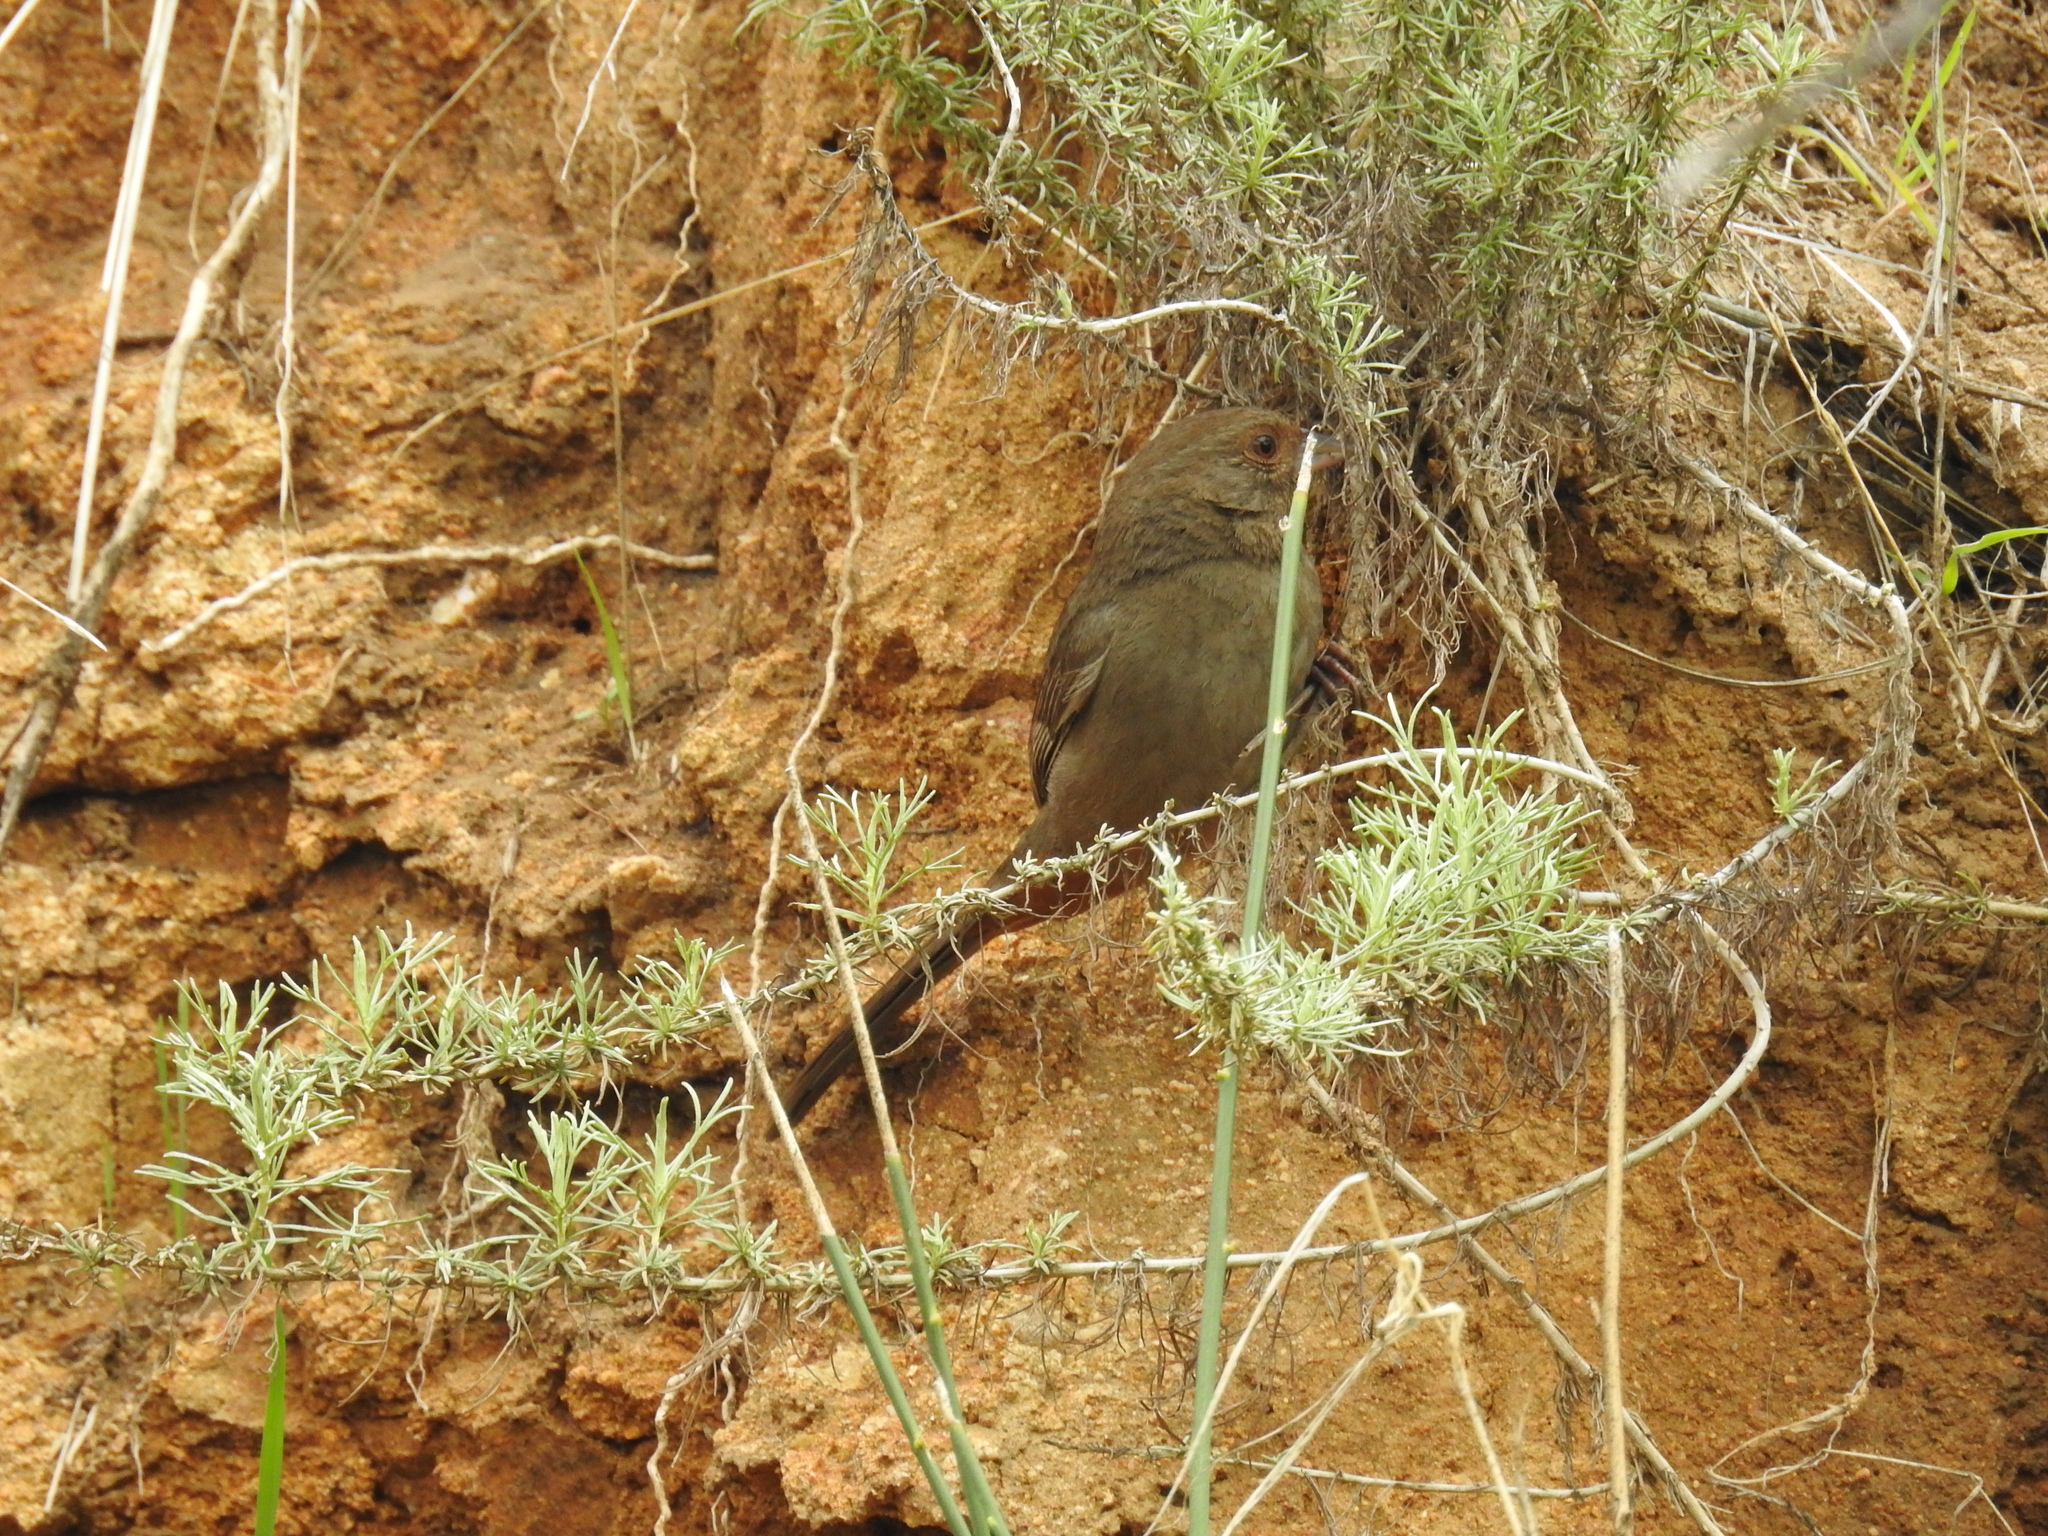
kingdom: Animalia
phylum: Chordata
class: Aves
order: Passeriformes
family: Passerellidae
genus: Melozone
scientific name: Melozone crissalis
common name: California towhee
